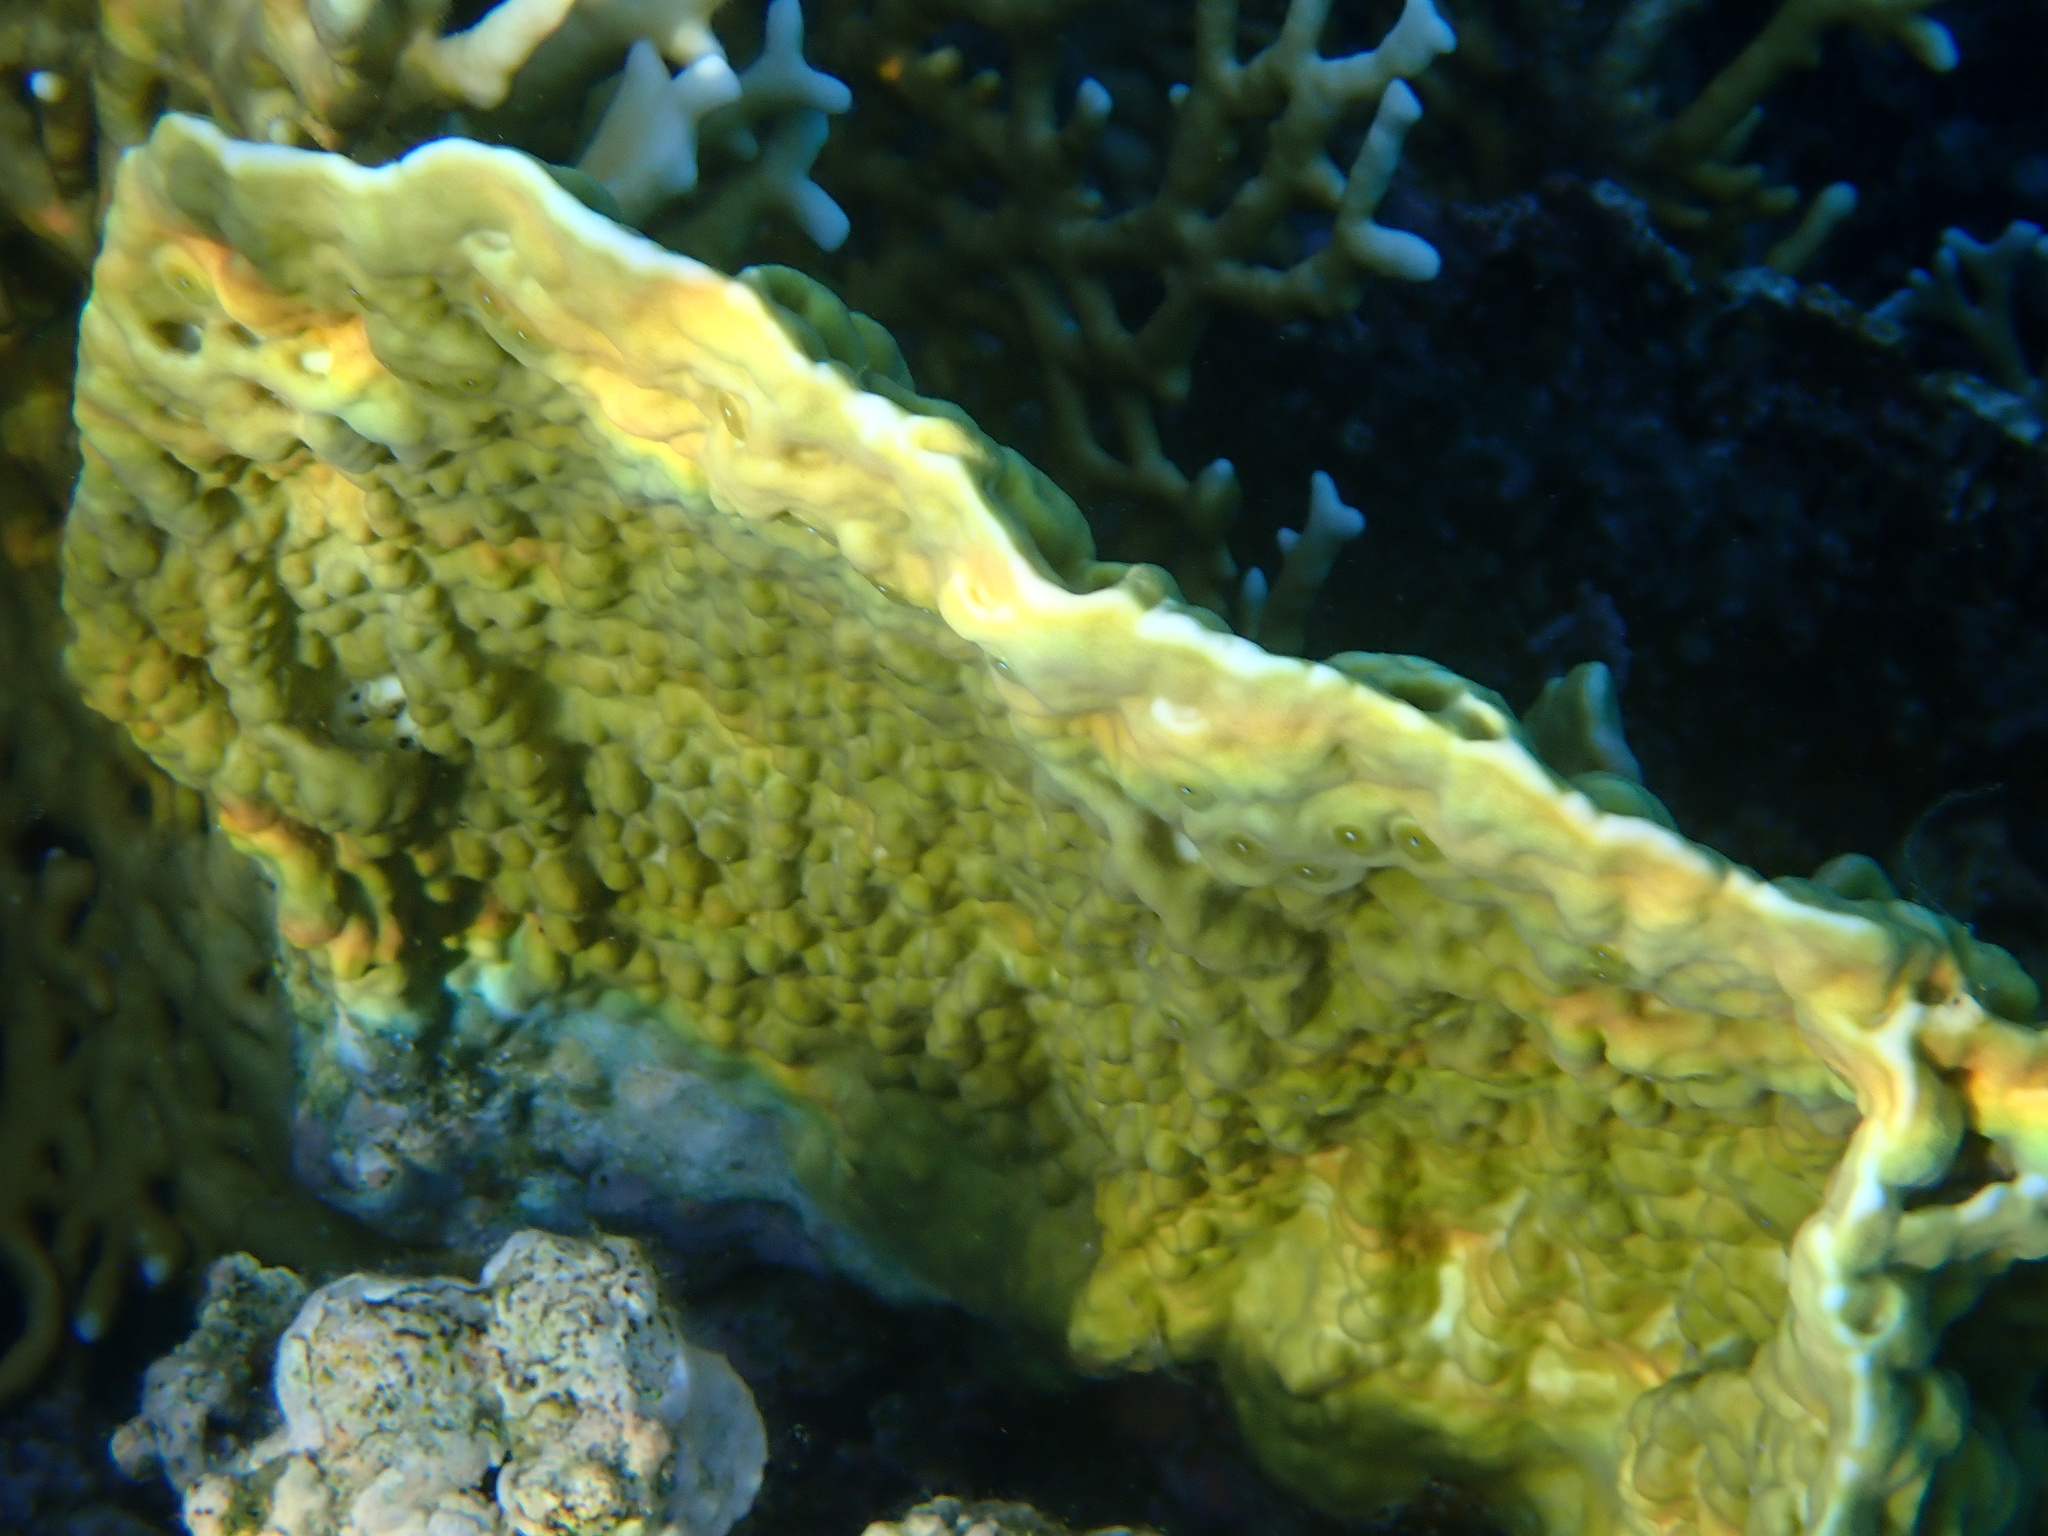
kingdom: Animalia
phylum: Cnidaria
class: Hydrozoa
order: Anthoathecata
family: Milleporidae
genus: Millepora
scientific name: Millepora platyphylla
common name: Sheet fire coral
